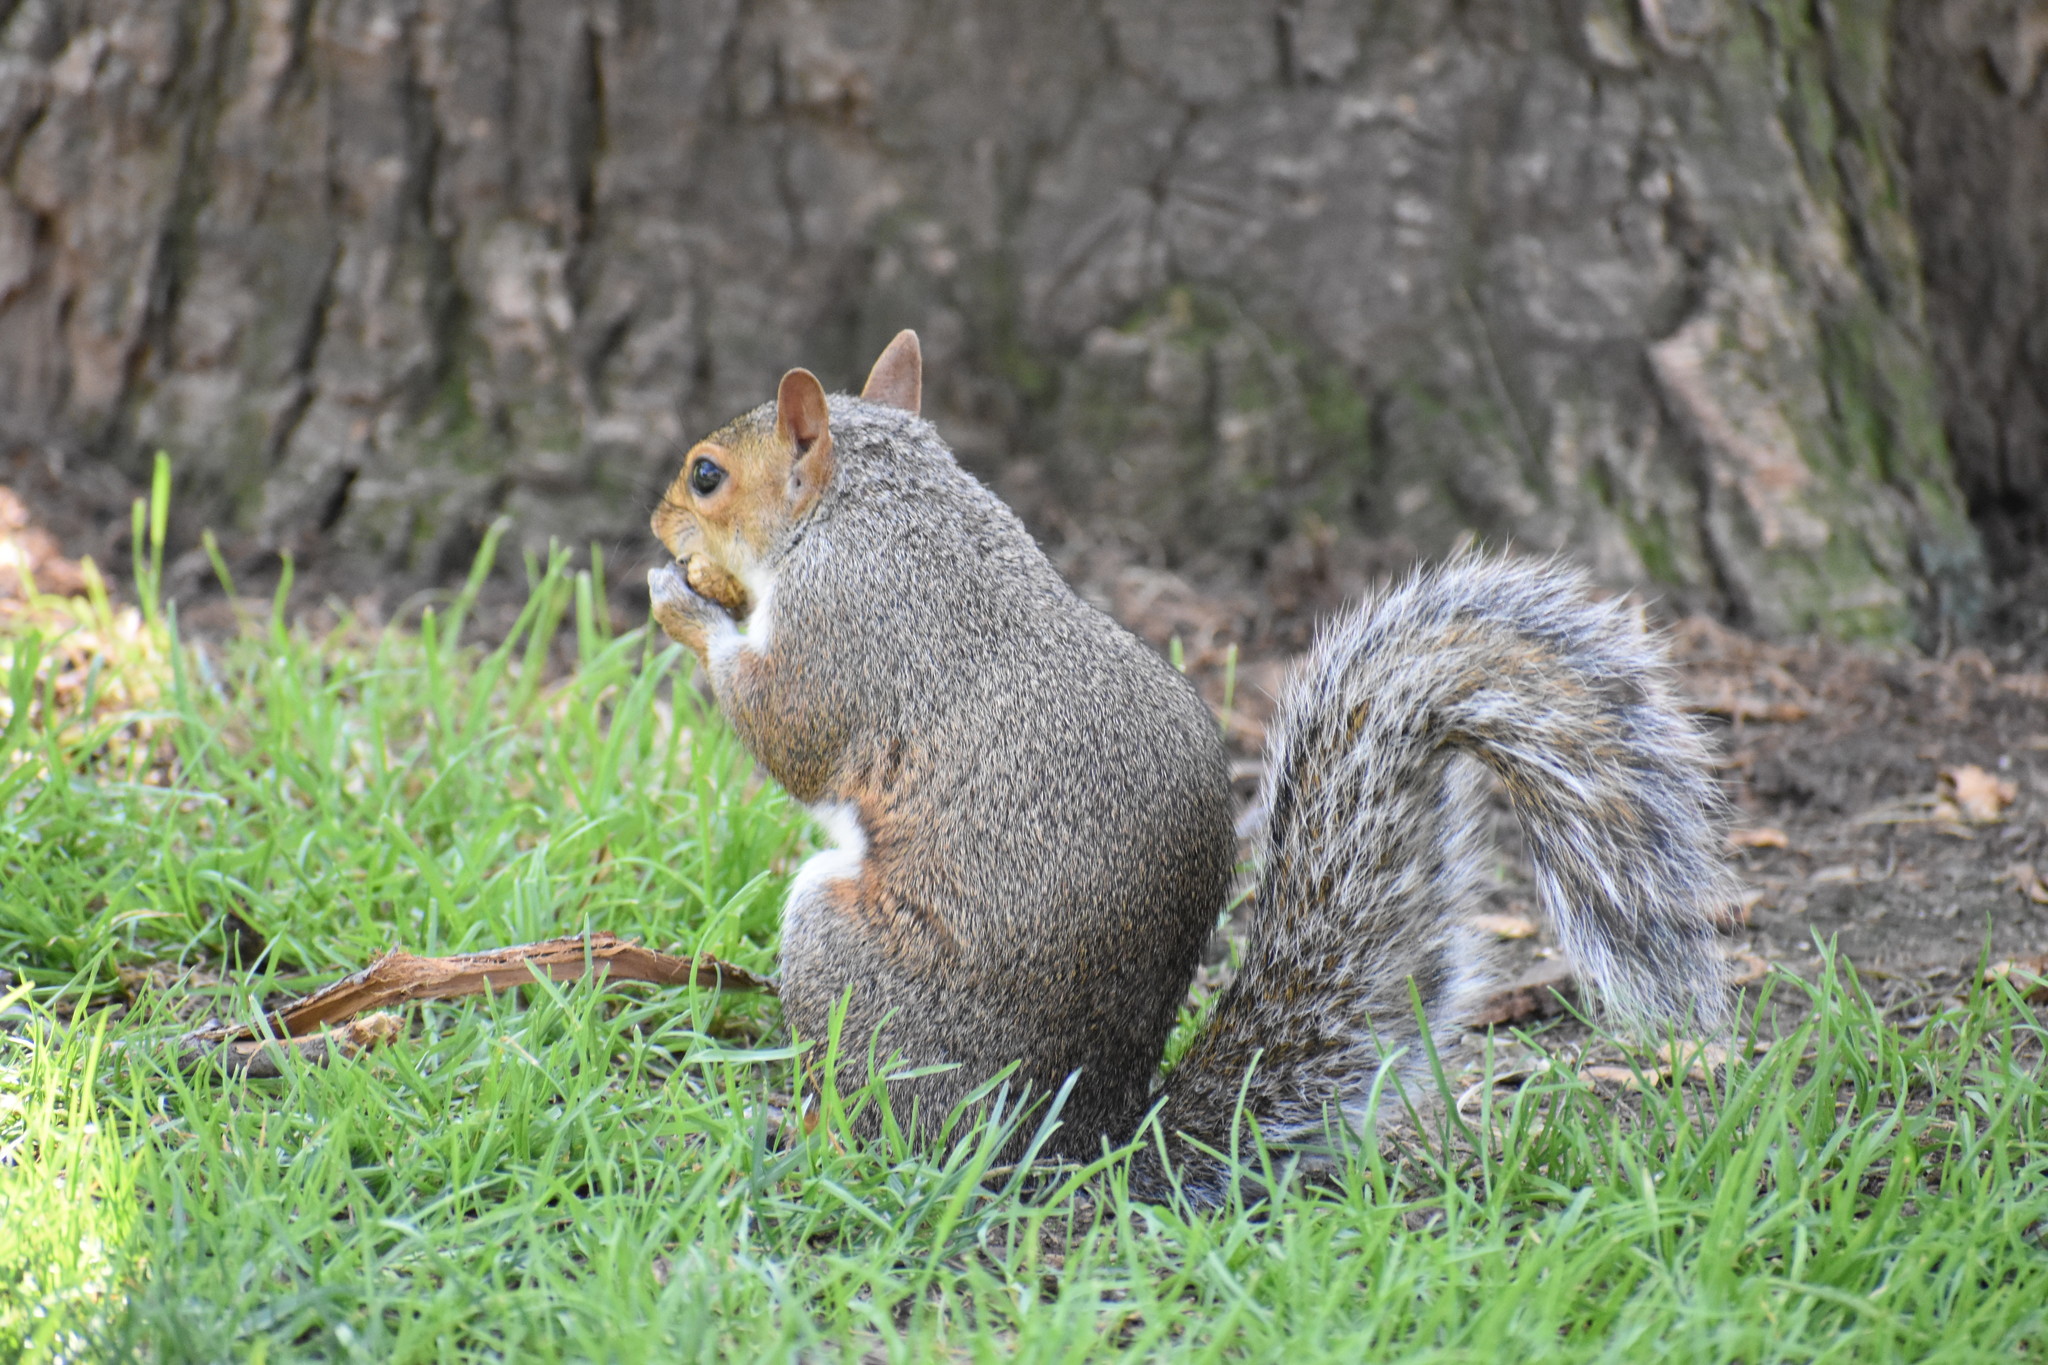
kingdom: Animalia
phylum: Chordata
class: Mammalia
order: Rodentia
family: Sciuridae
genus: Sciurus
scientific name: Sciurus carolinensis
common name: Eastern gray squirrel
